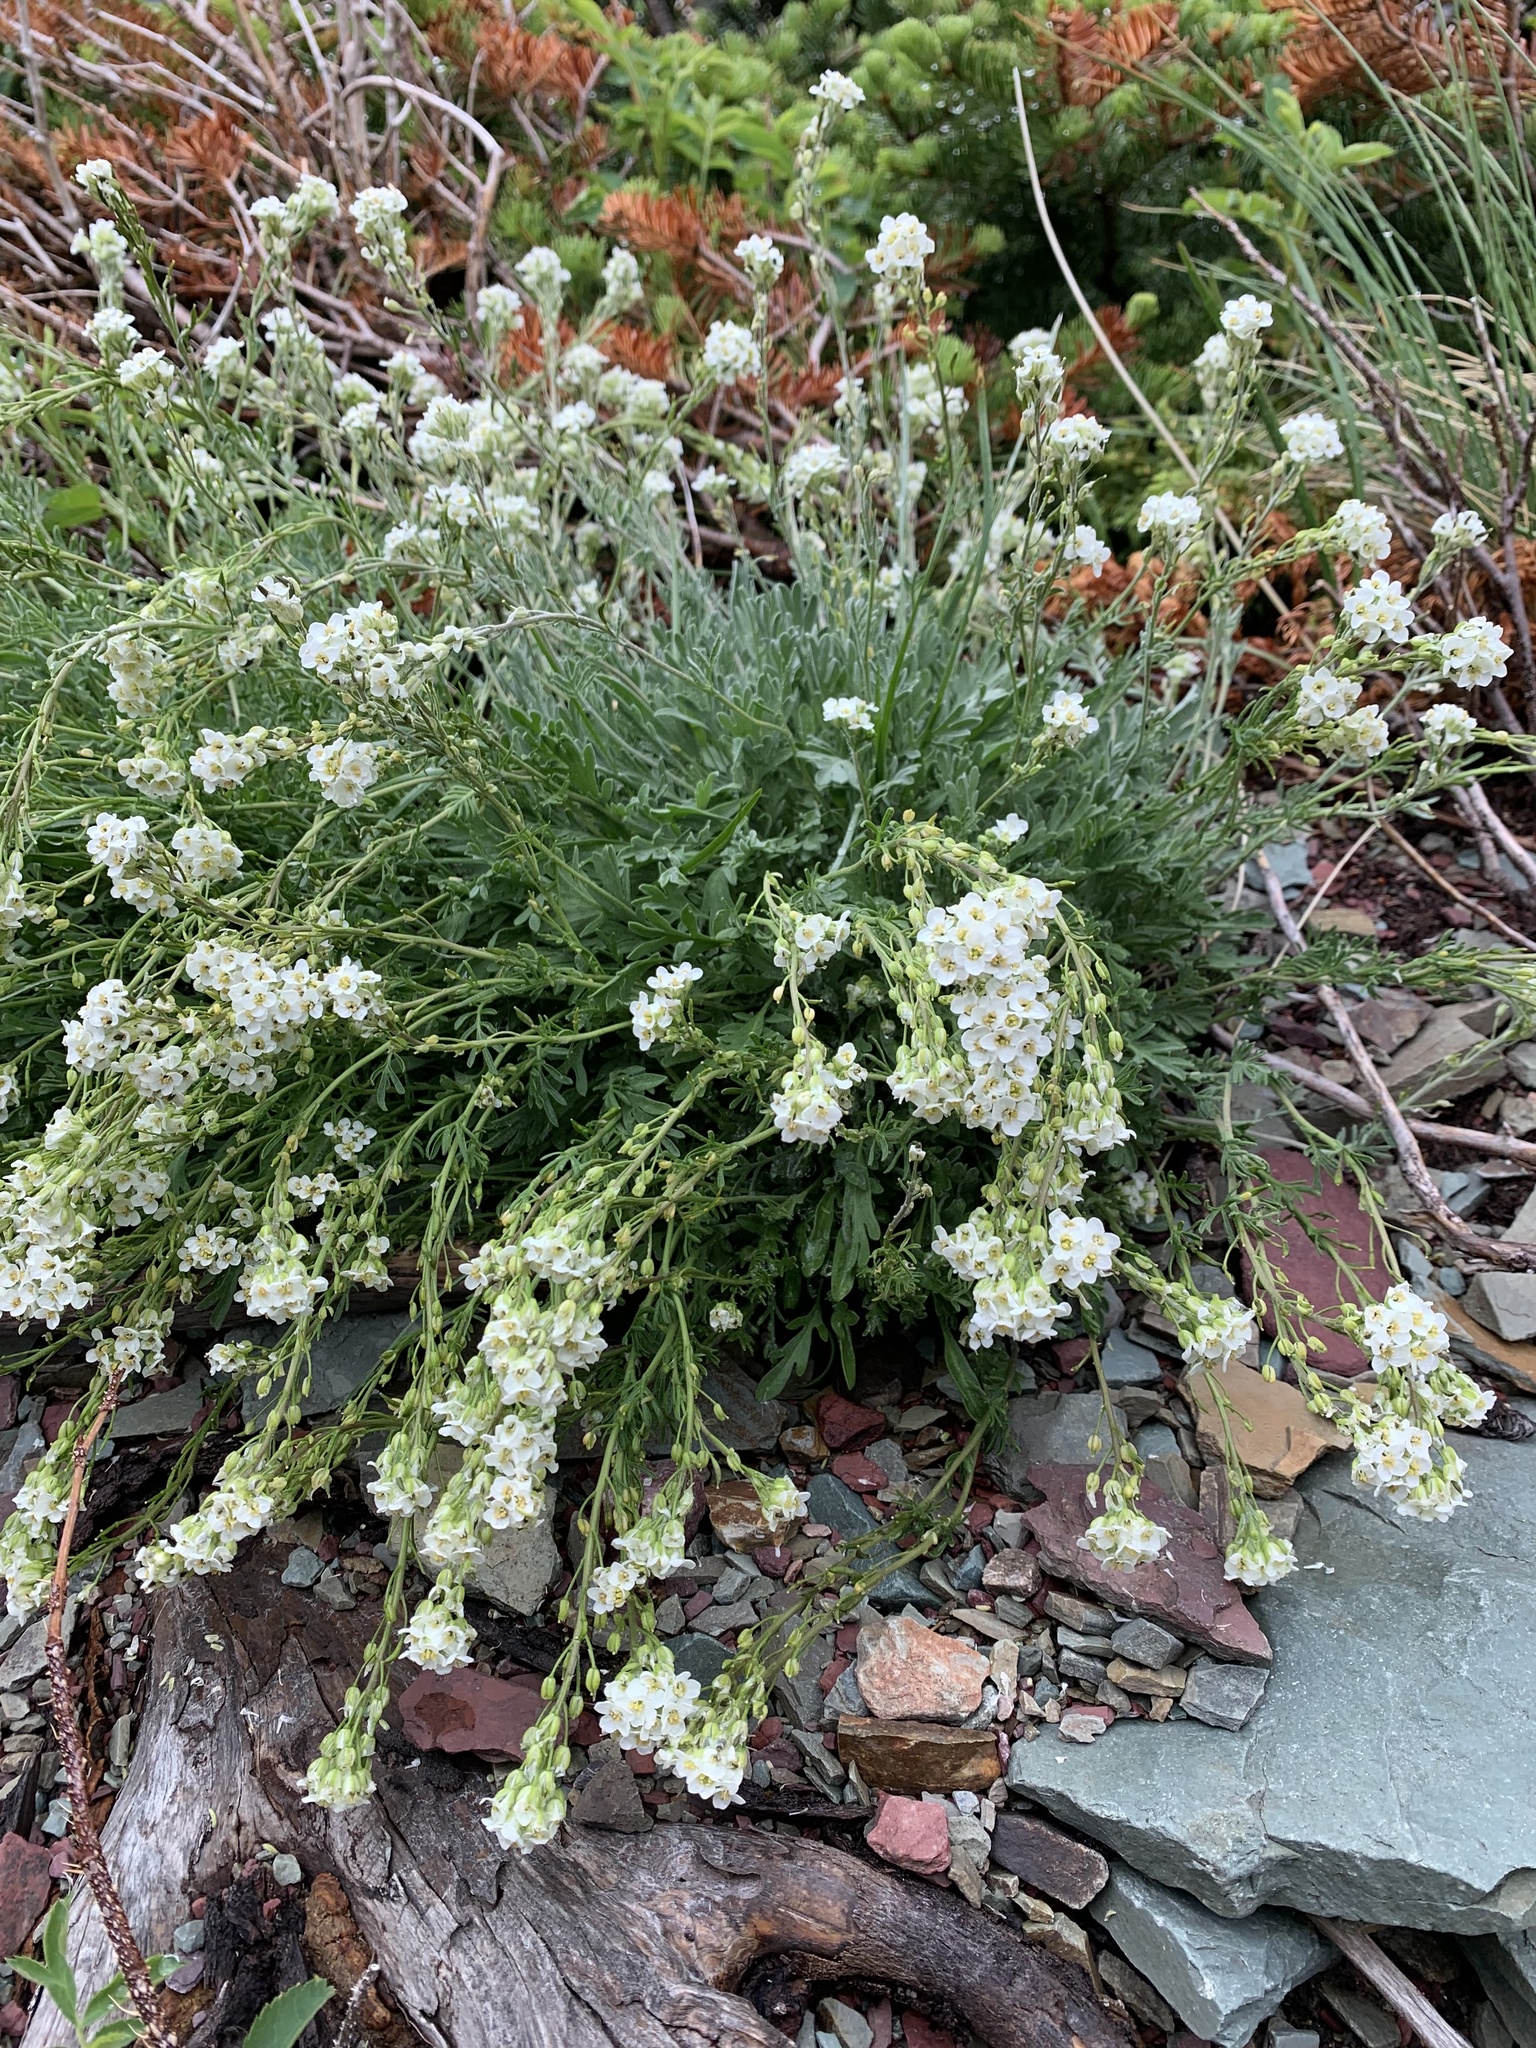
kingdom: Plantae
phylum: Tracheophyta
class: Magnoliopsida
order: Brassicales
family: Brassicaceae
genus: Smelowskia
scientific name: Smelowskia americana
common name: American false candytuft
